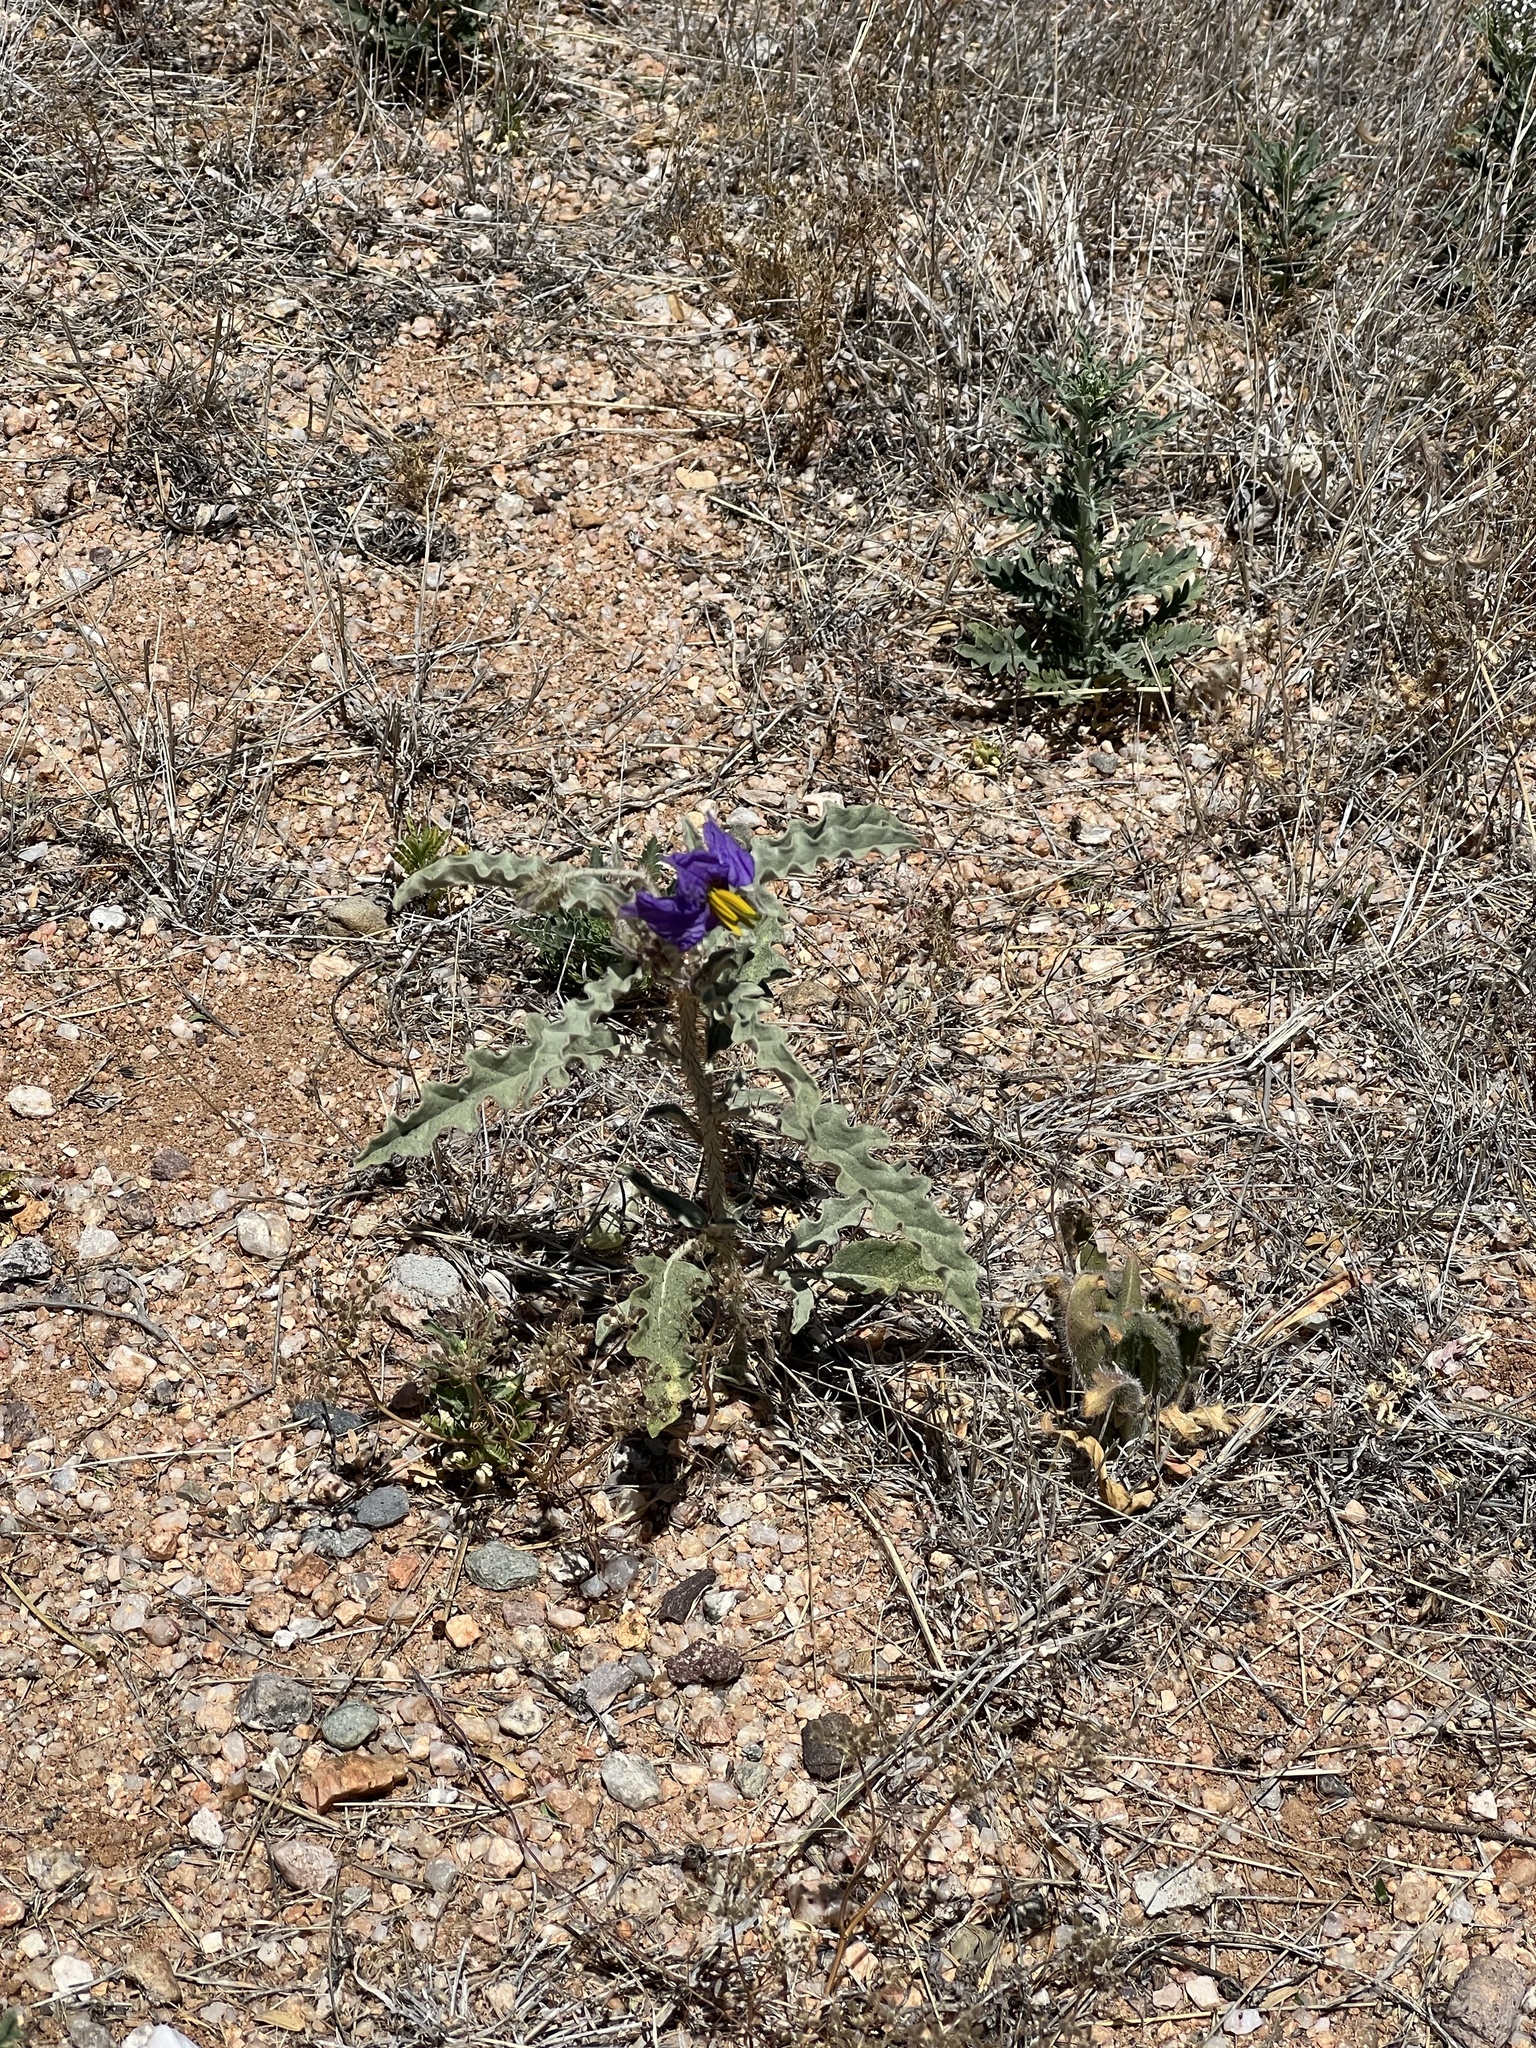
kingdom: Plantae
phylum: Tracheophyta
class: Magnoliopsida
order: Solanales
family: Solanaceae
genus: Solanum
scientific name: Solanum elaeagnifolium
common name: Silverleaf nightshade
